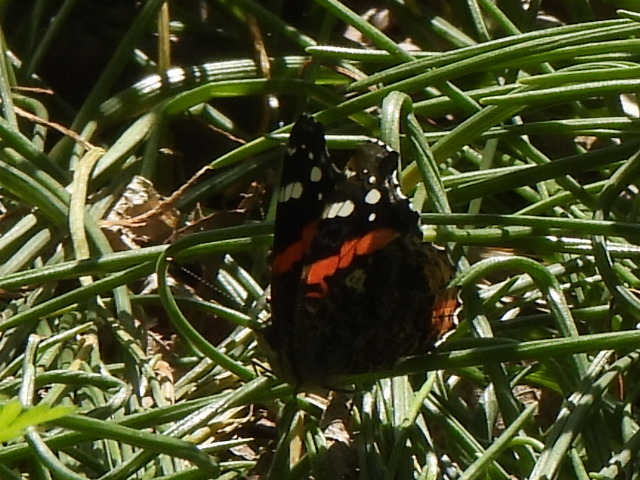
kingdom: Animalia
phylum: Arthropoda
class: Insecta
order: Lepidoptera
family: Nymphalidae
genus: Vanessa
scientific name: Vanessa atalanta
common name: Red admiral
